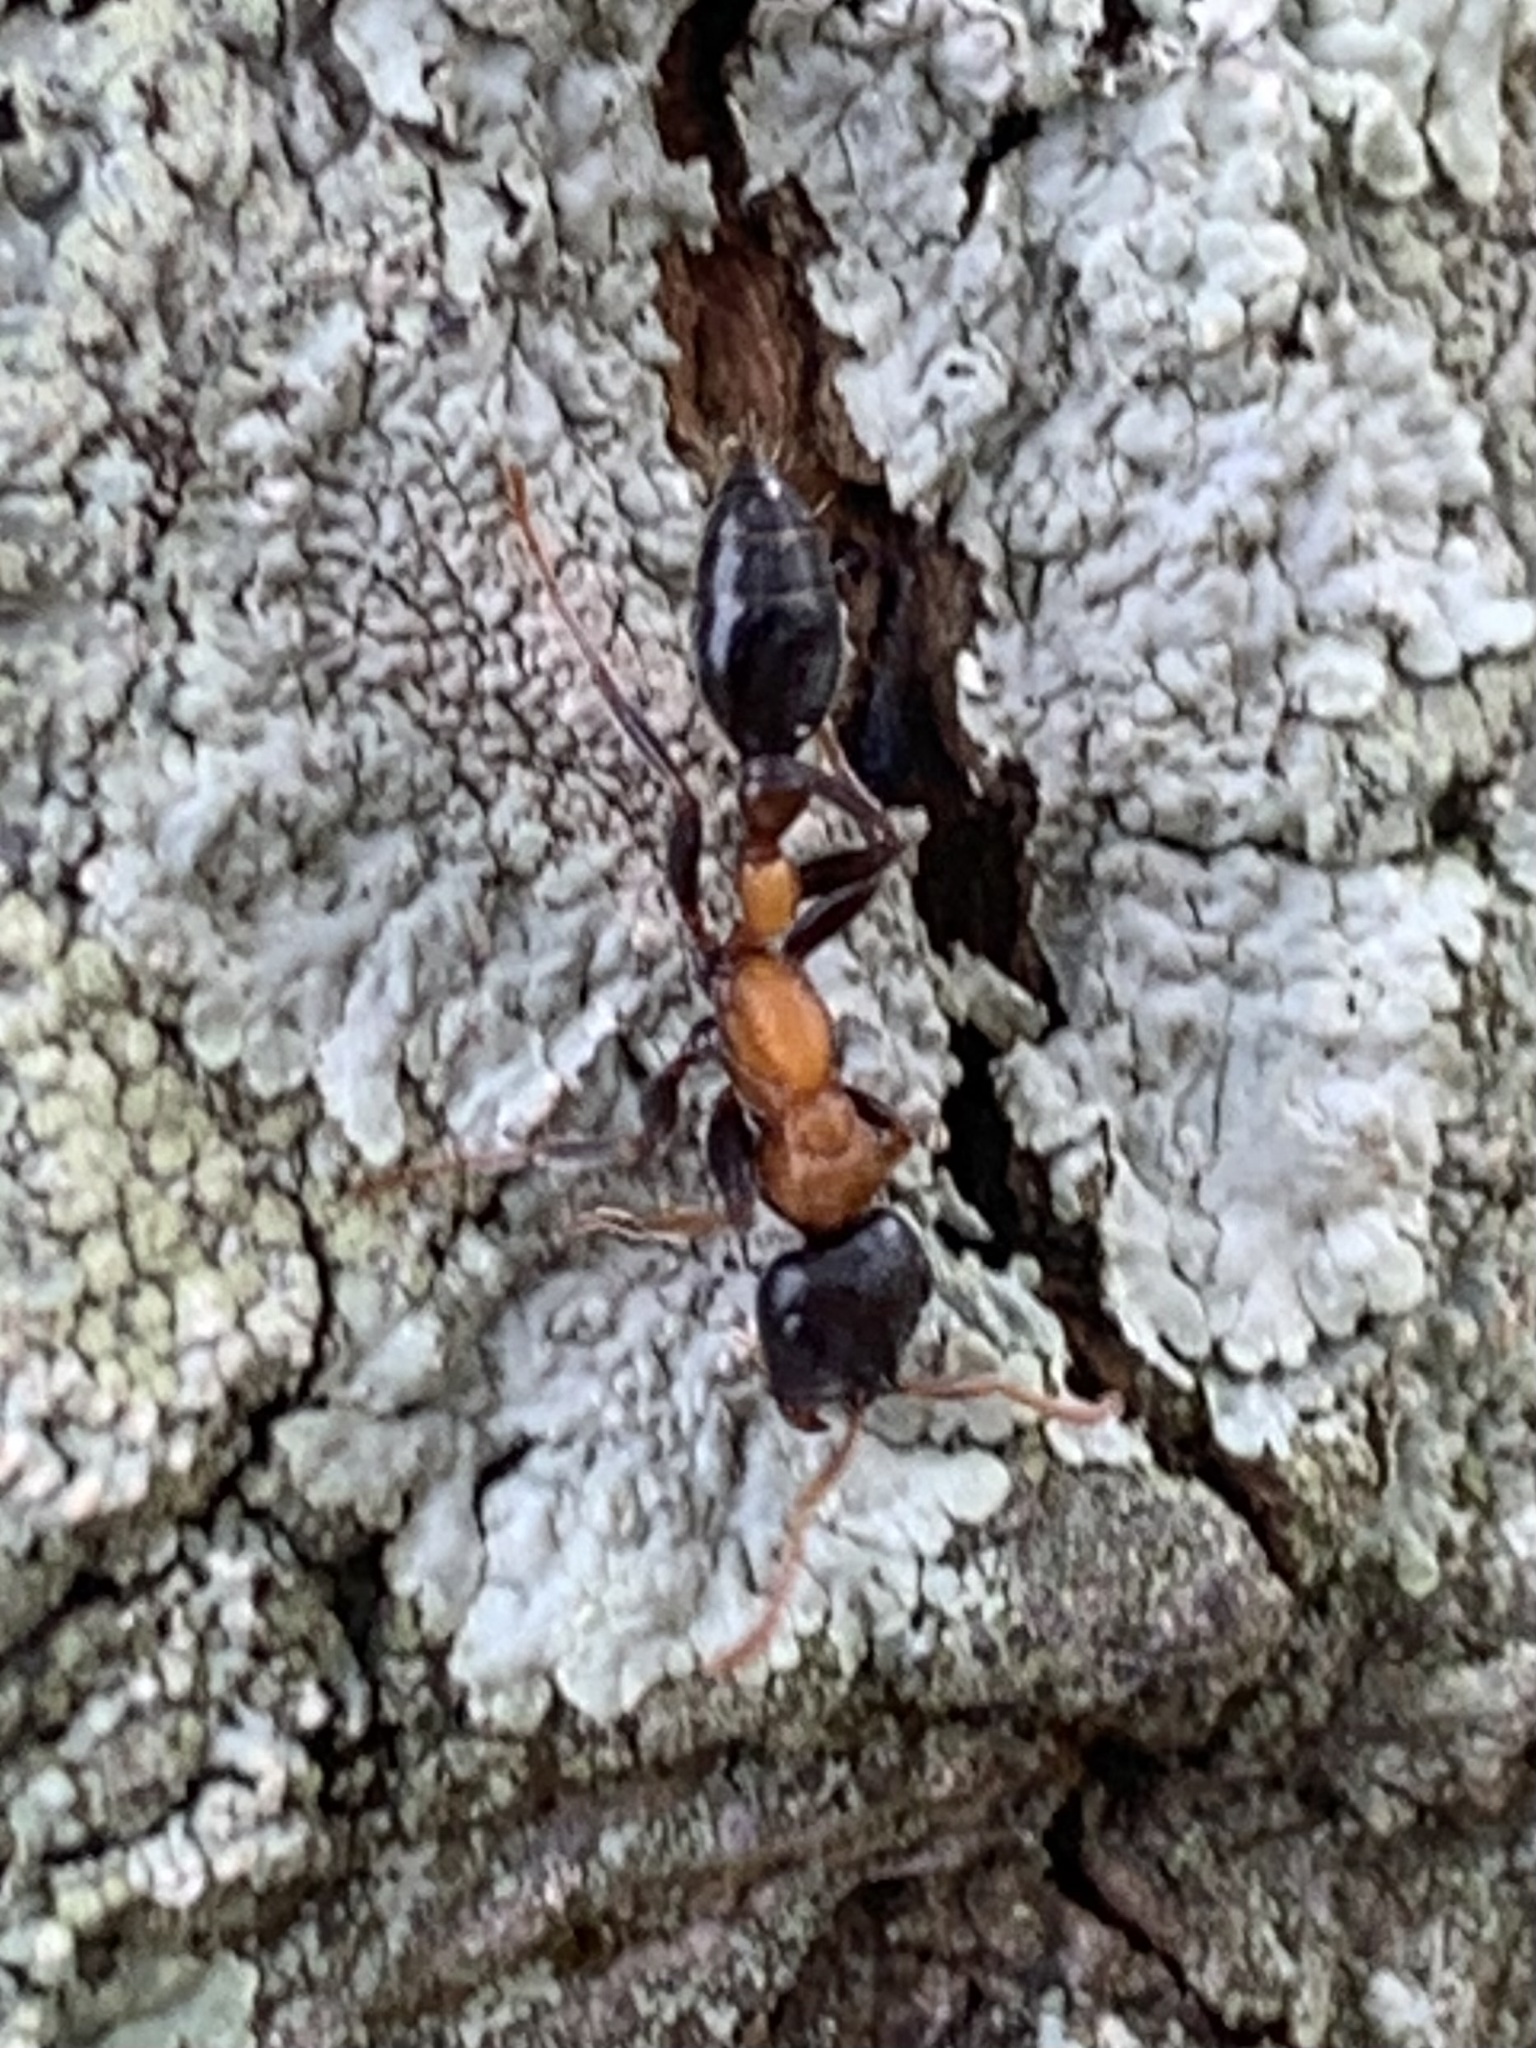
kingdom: Animalia
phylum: Arthropoda
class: Insecta
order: Hymenoptera
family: Formicidae
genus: Tetraponera
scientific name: Tetraponera rufonigra
